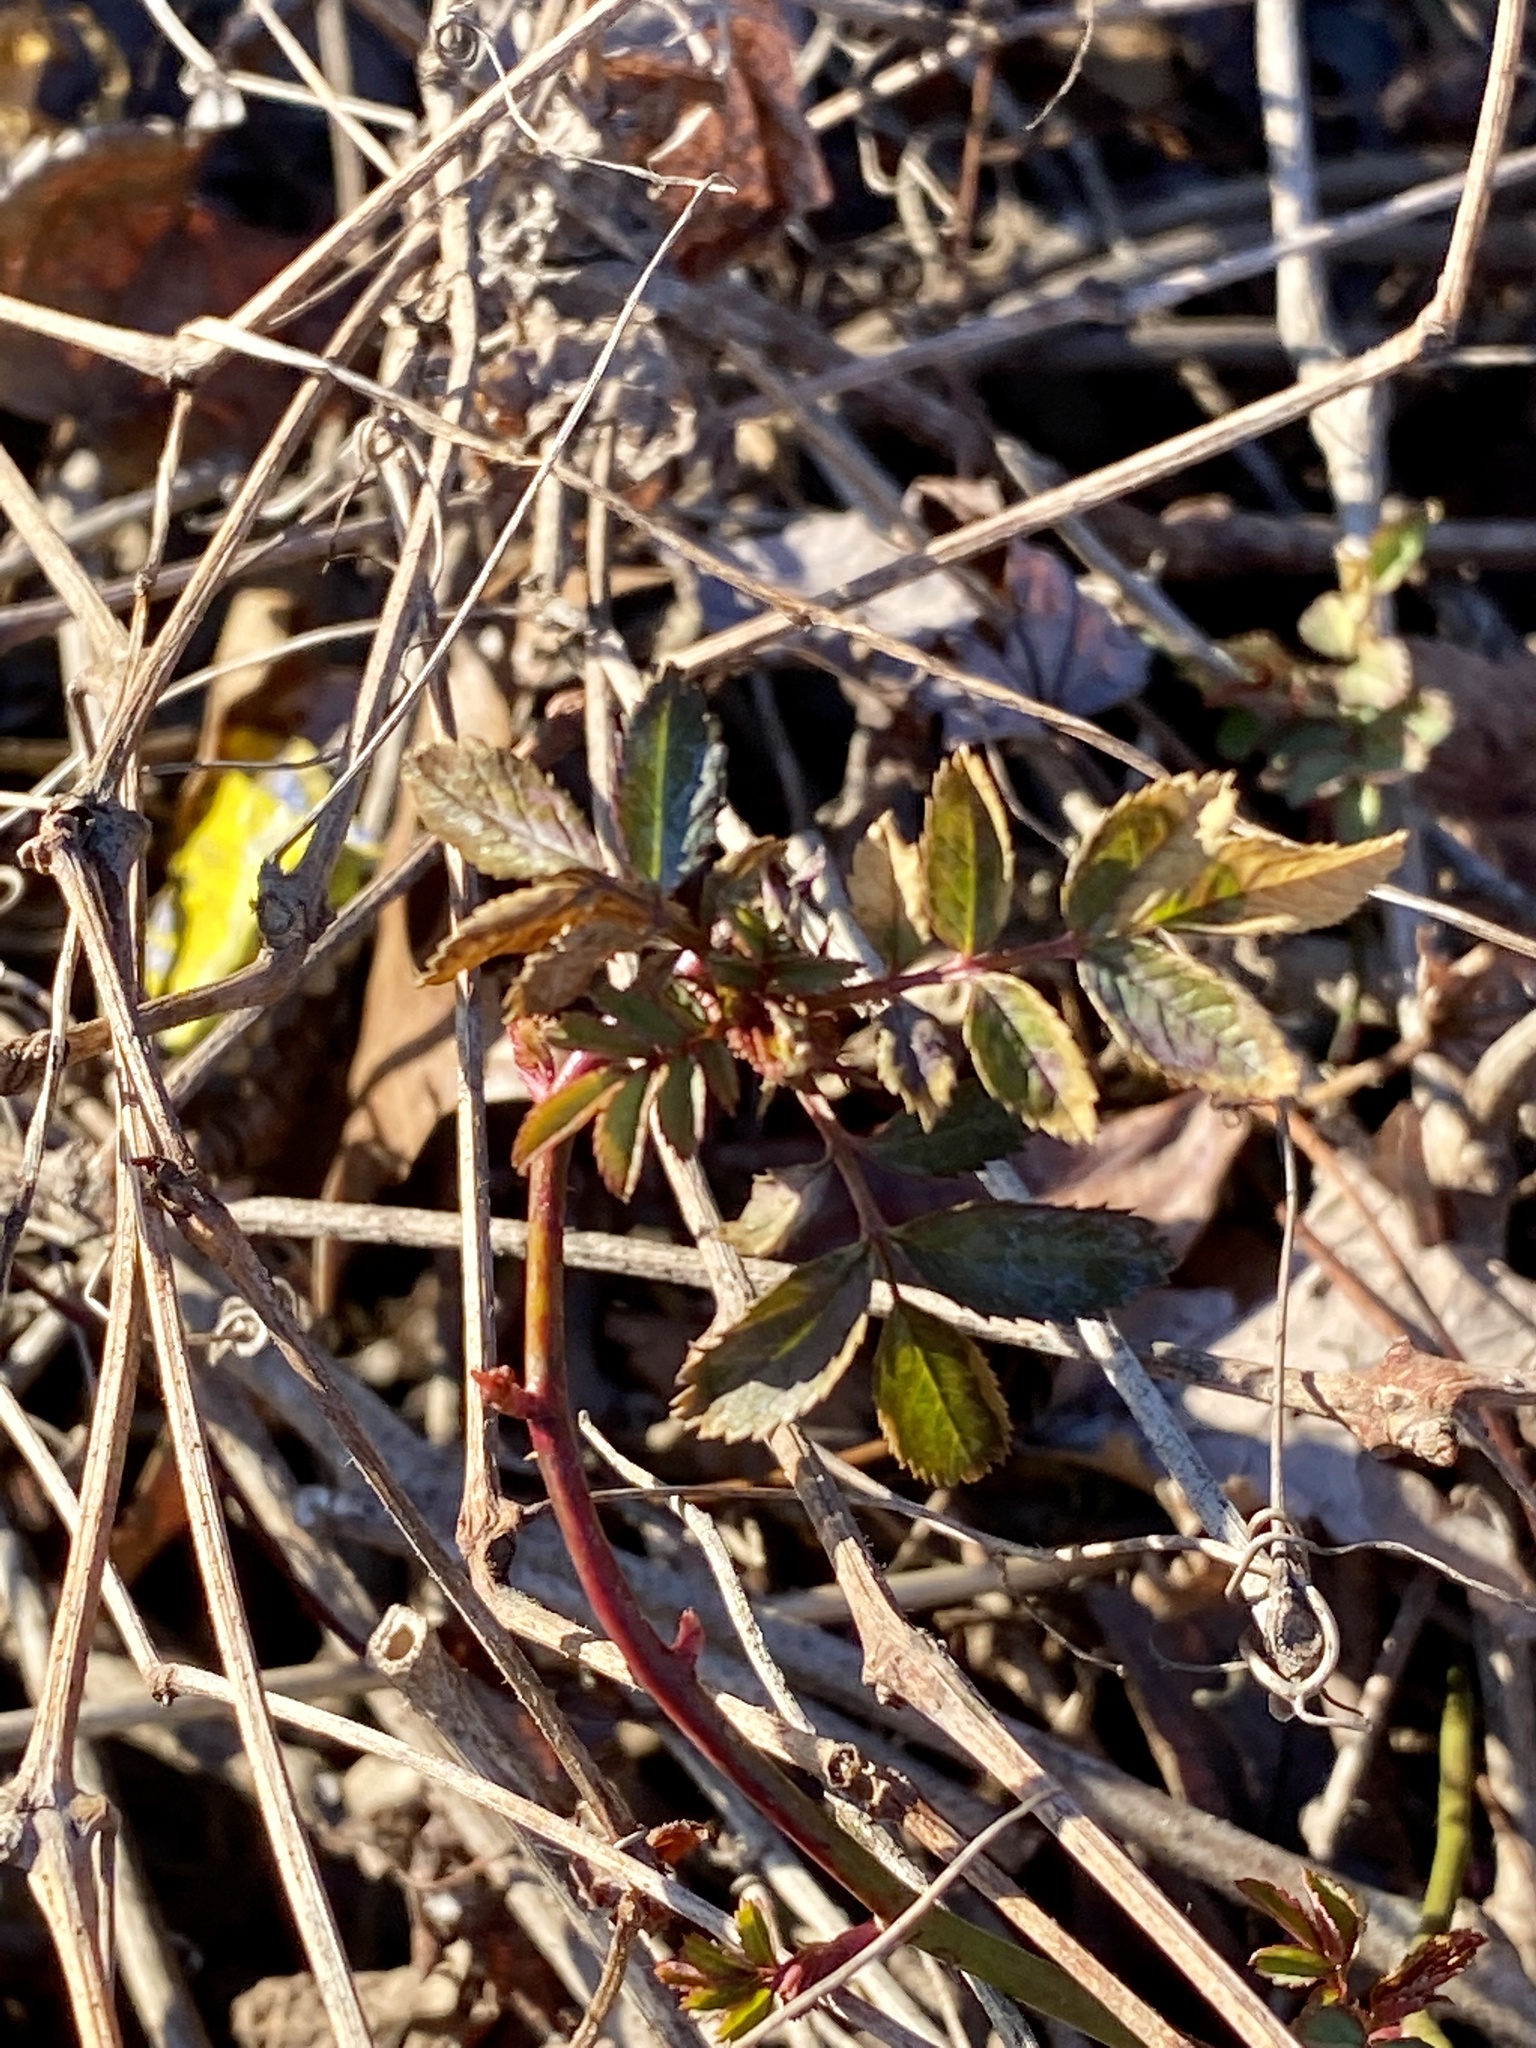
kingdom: Plantae
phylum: Tracheophyta
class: Magnoliopsida
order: Rosales
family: Rosaceae
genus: Rosa
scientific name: Rosa multiflora
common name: Multiflora rose
